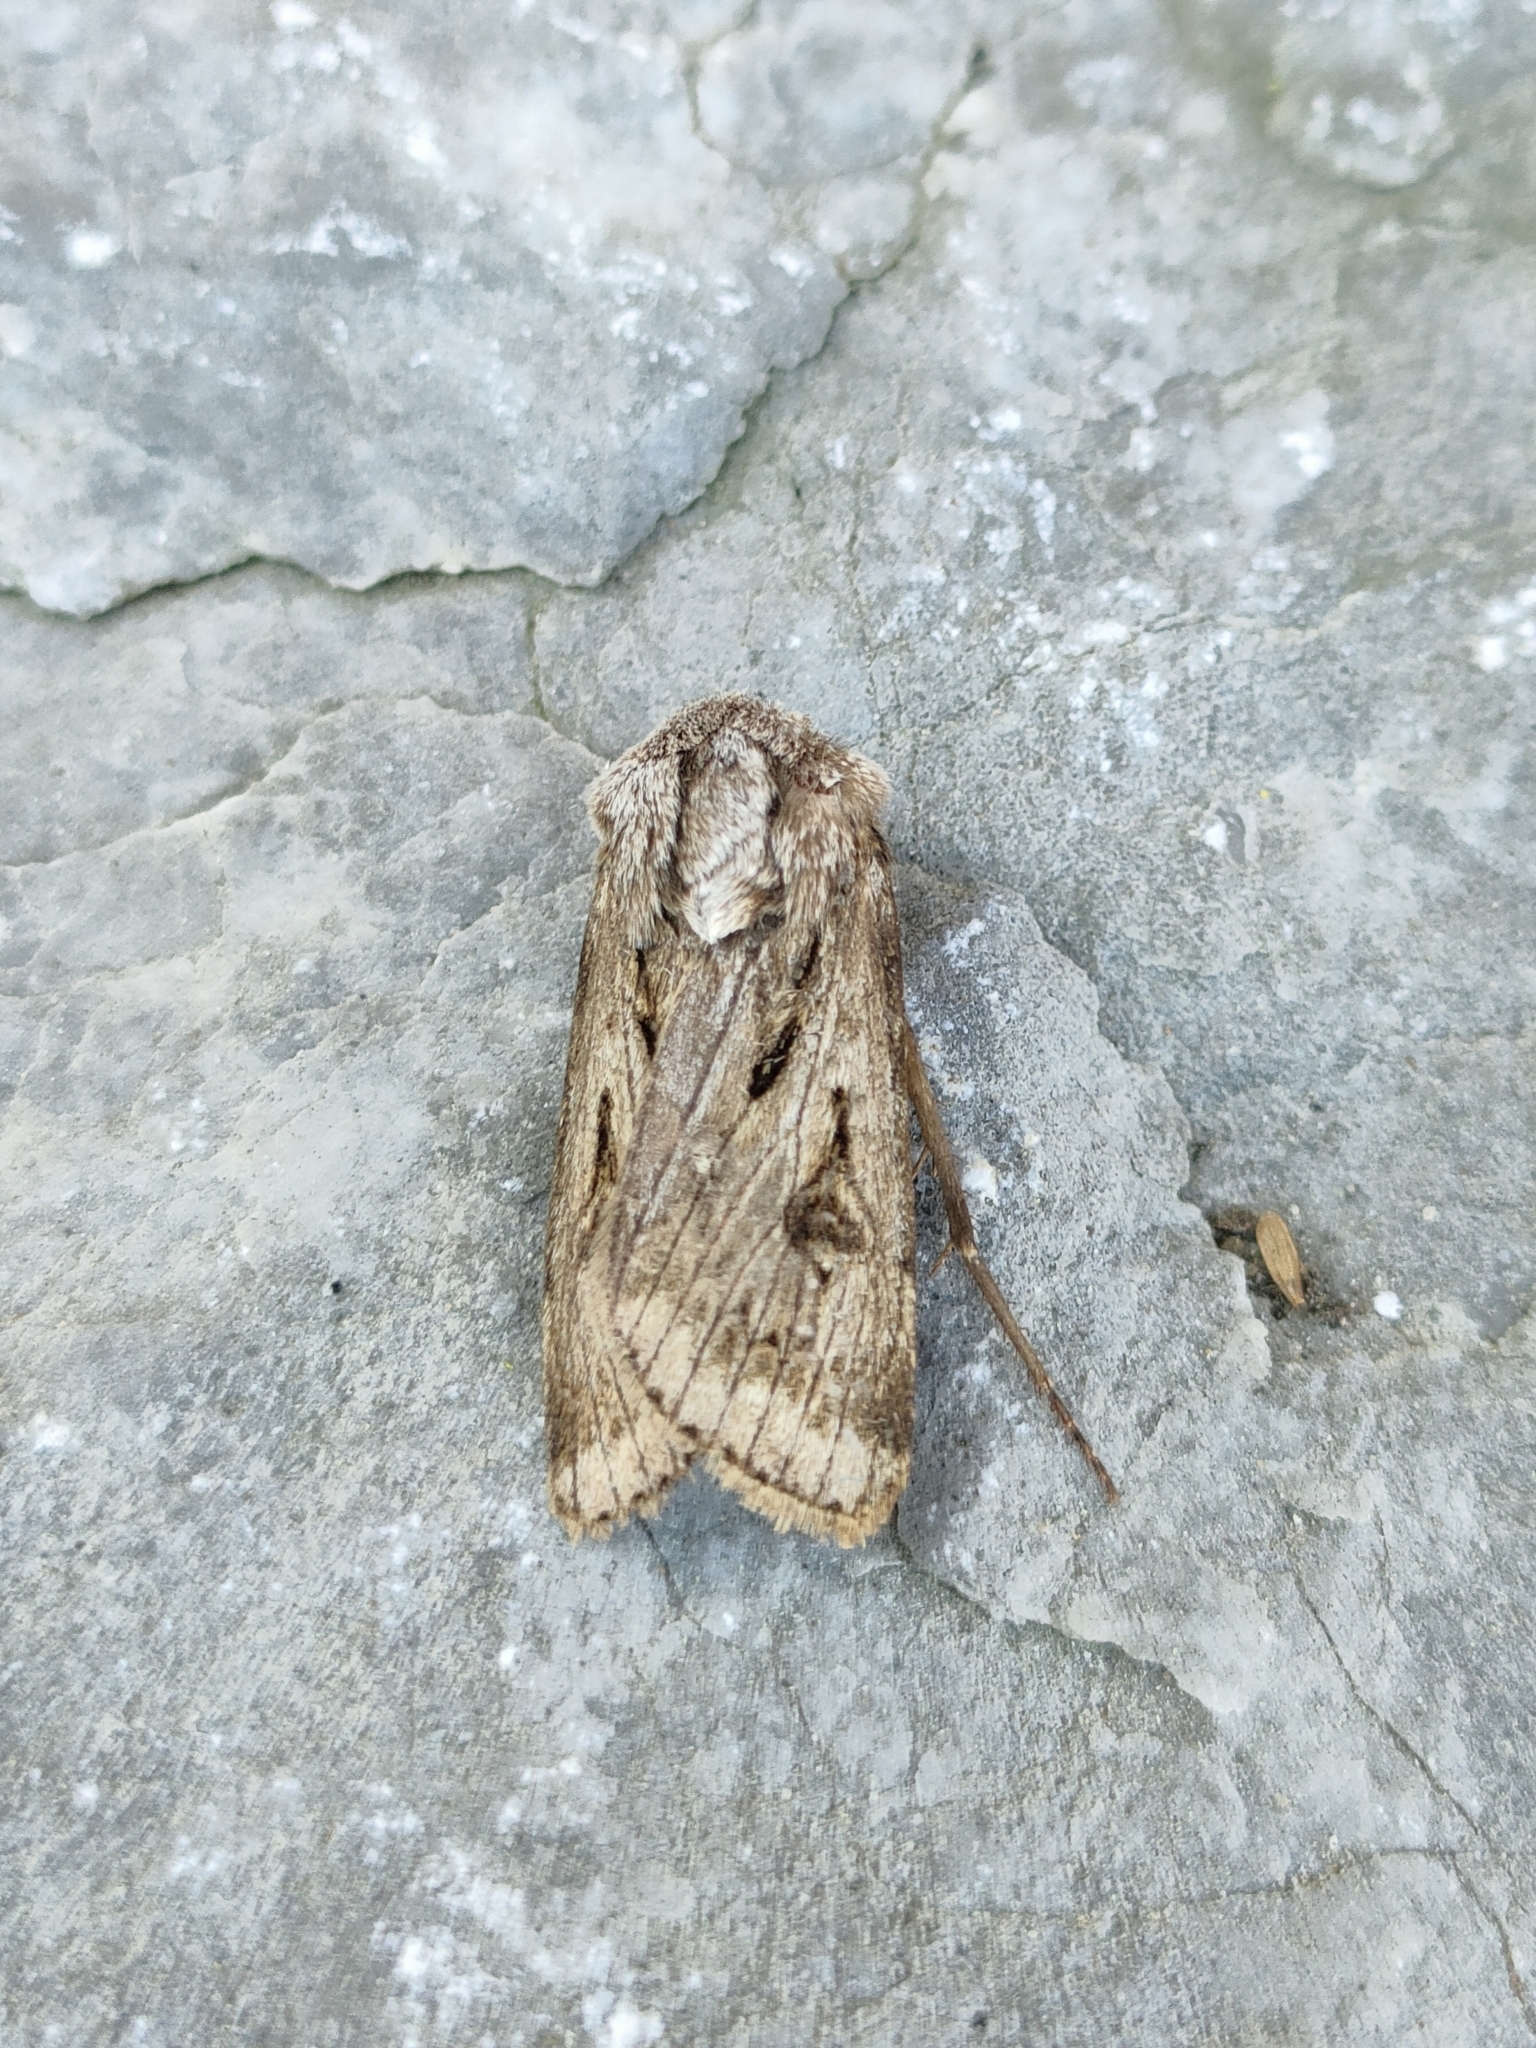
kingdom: Animalia
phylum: Arthropoda
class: Insecta
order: Lepidoptera
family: Noctuidae
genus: Agrotis
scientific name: Agrotis chretieni
